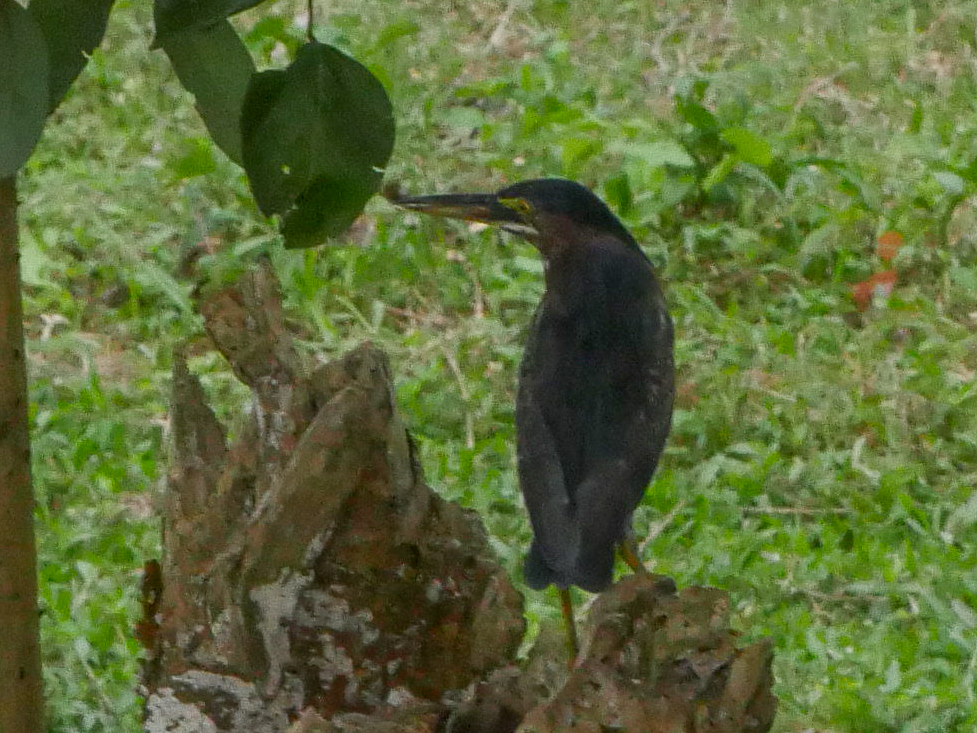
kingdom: Animalia
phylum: Chordata
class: Aves
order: Pelecaniformes
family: Ardeidae
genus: Butorides
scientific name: Butorides virescens
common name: Green heron
